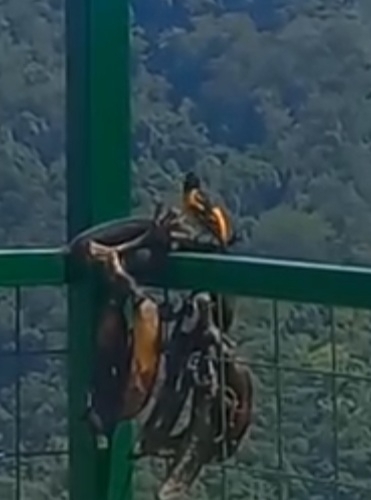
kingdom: Animalia
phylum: Chordata
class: Aves
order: Passeriformes
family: Icteridae
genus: Icterus
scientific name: Icterus galbula
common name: Baltimore oriole
